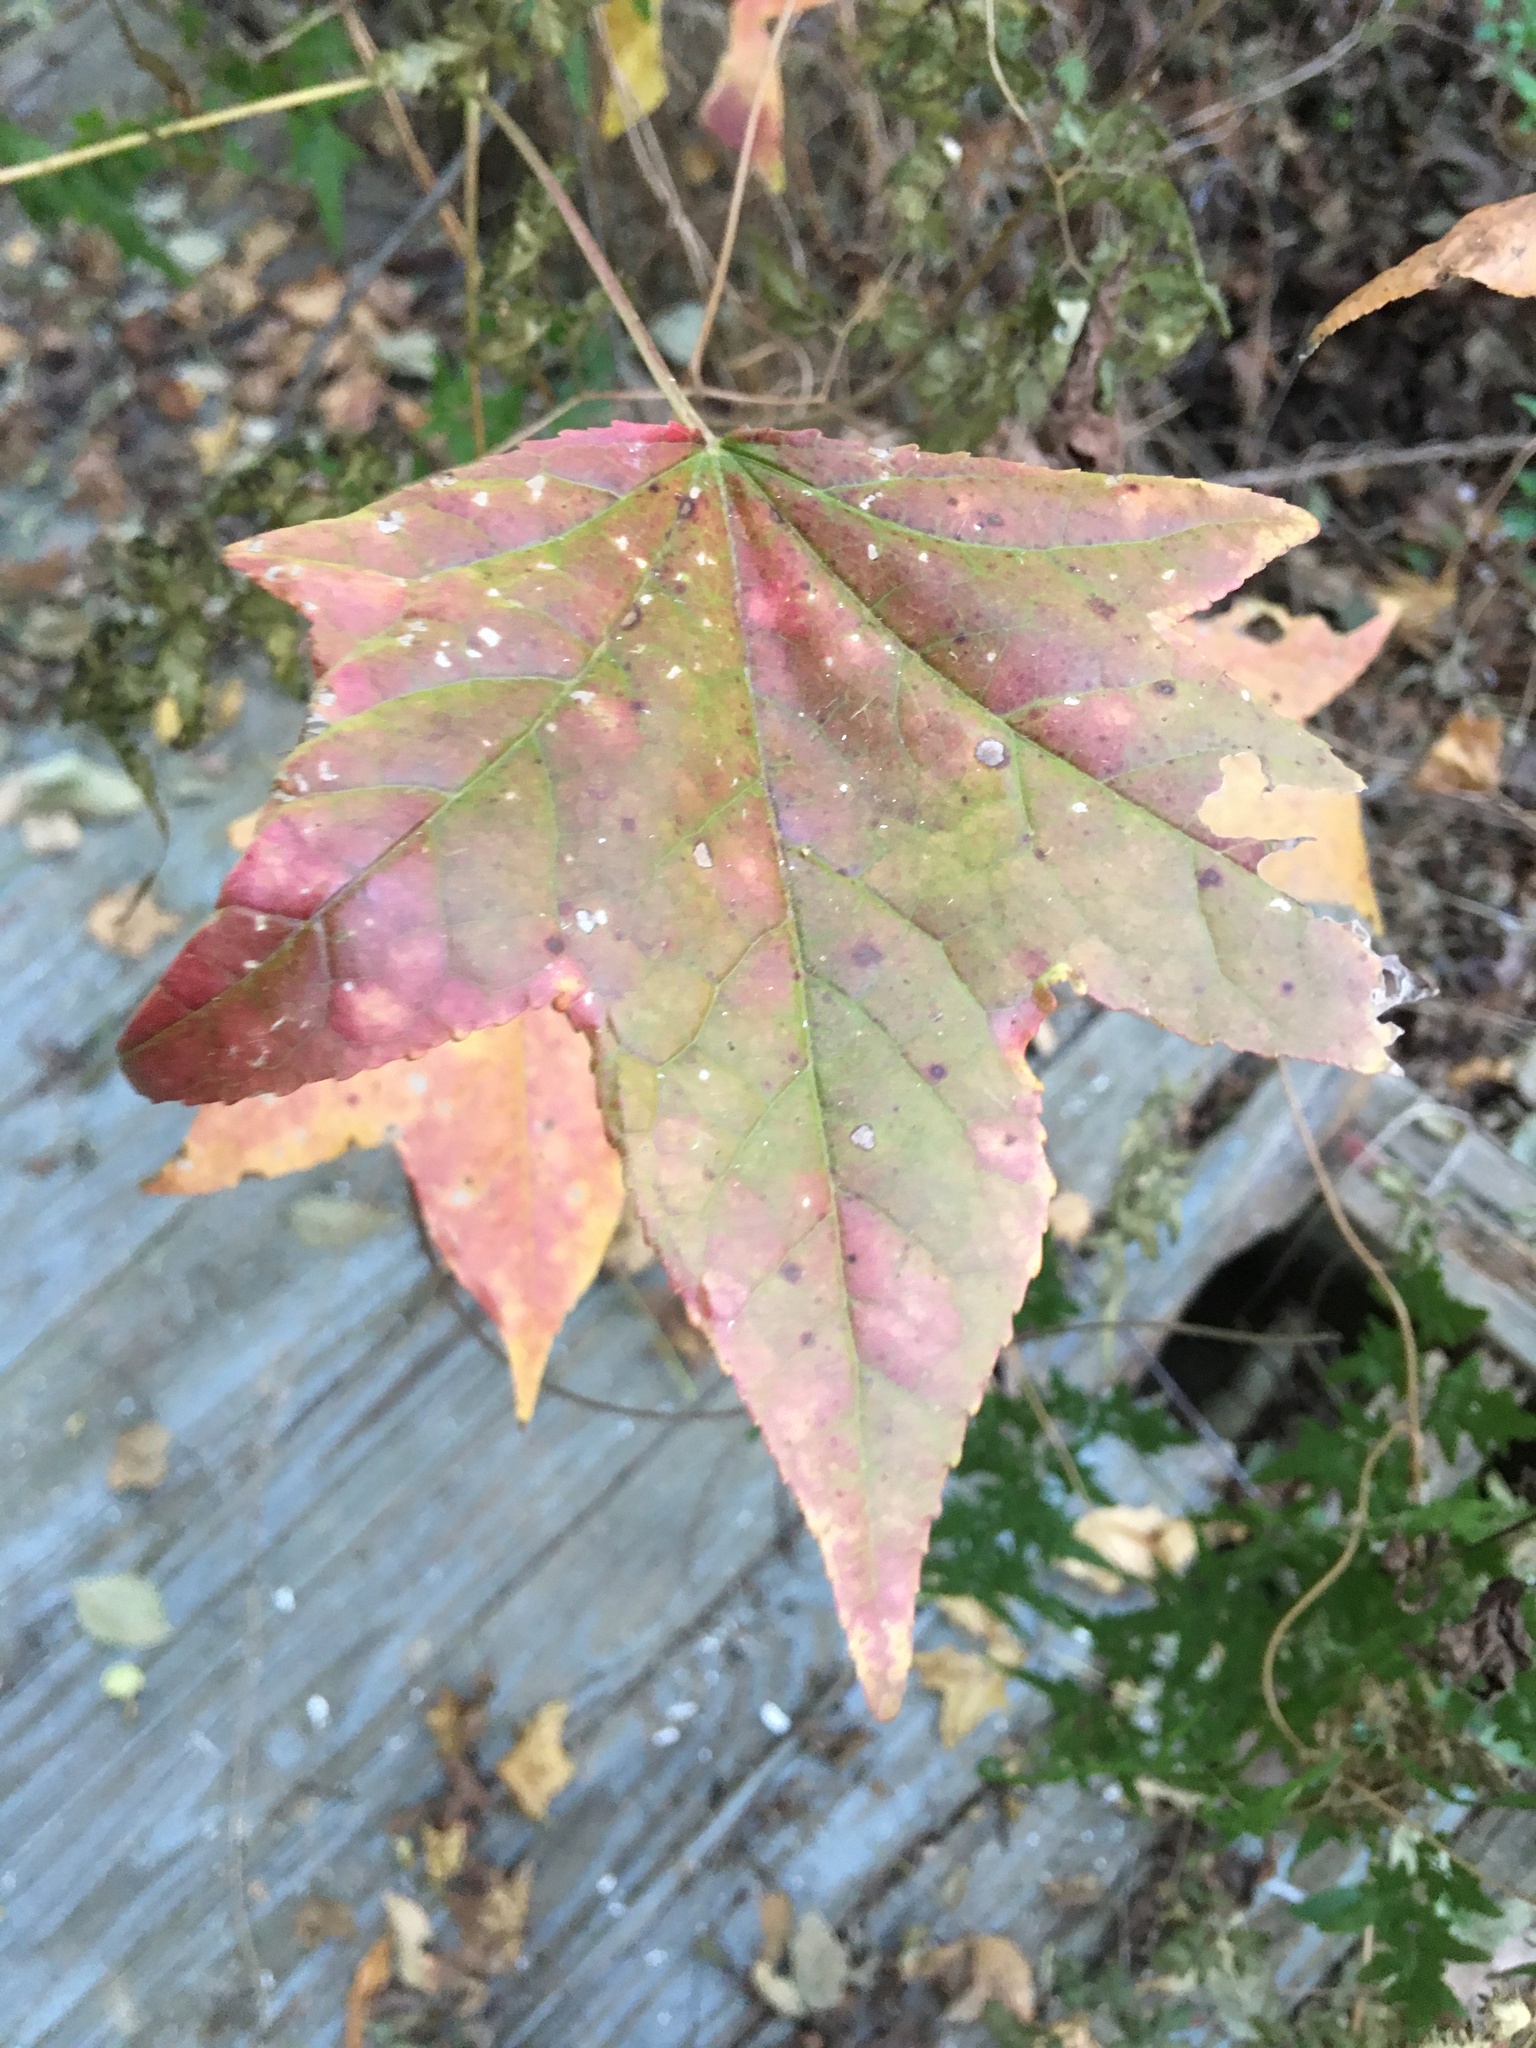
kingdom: Plantae
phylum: Tracheophyta
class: Magnoliopsida
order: Saxifragales
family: Altingiaceae
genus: Liquidambar
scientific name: Liquidambar styraciflua
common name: Sweet gum
